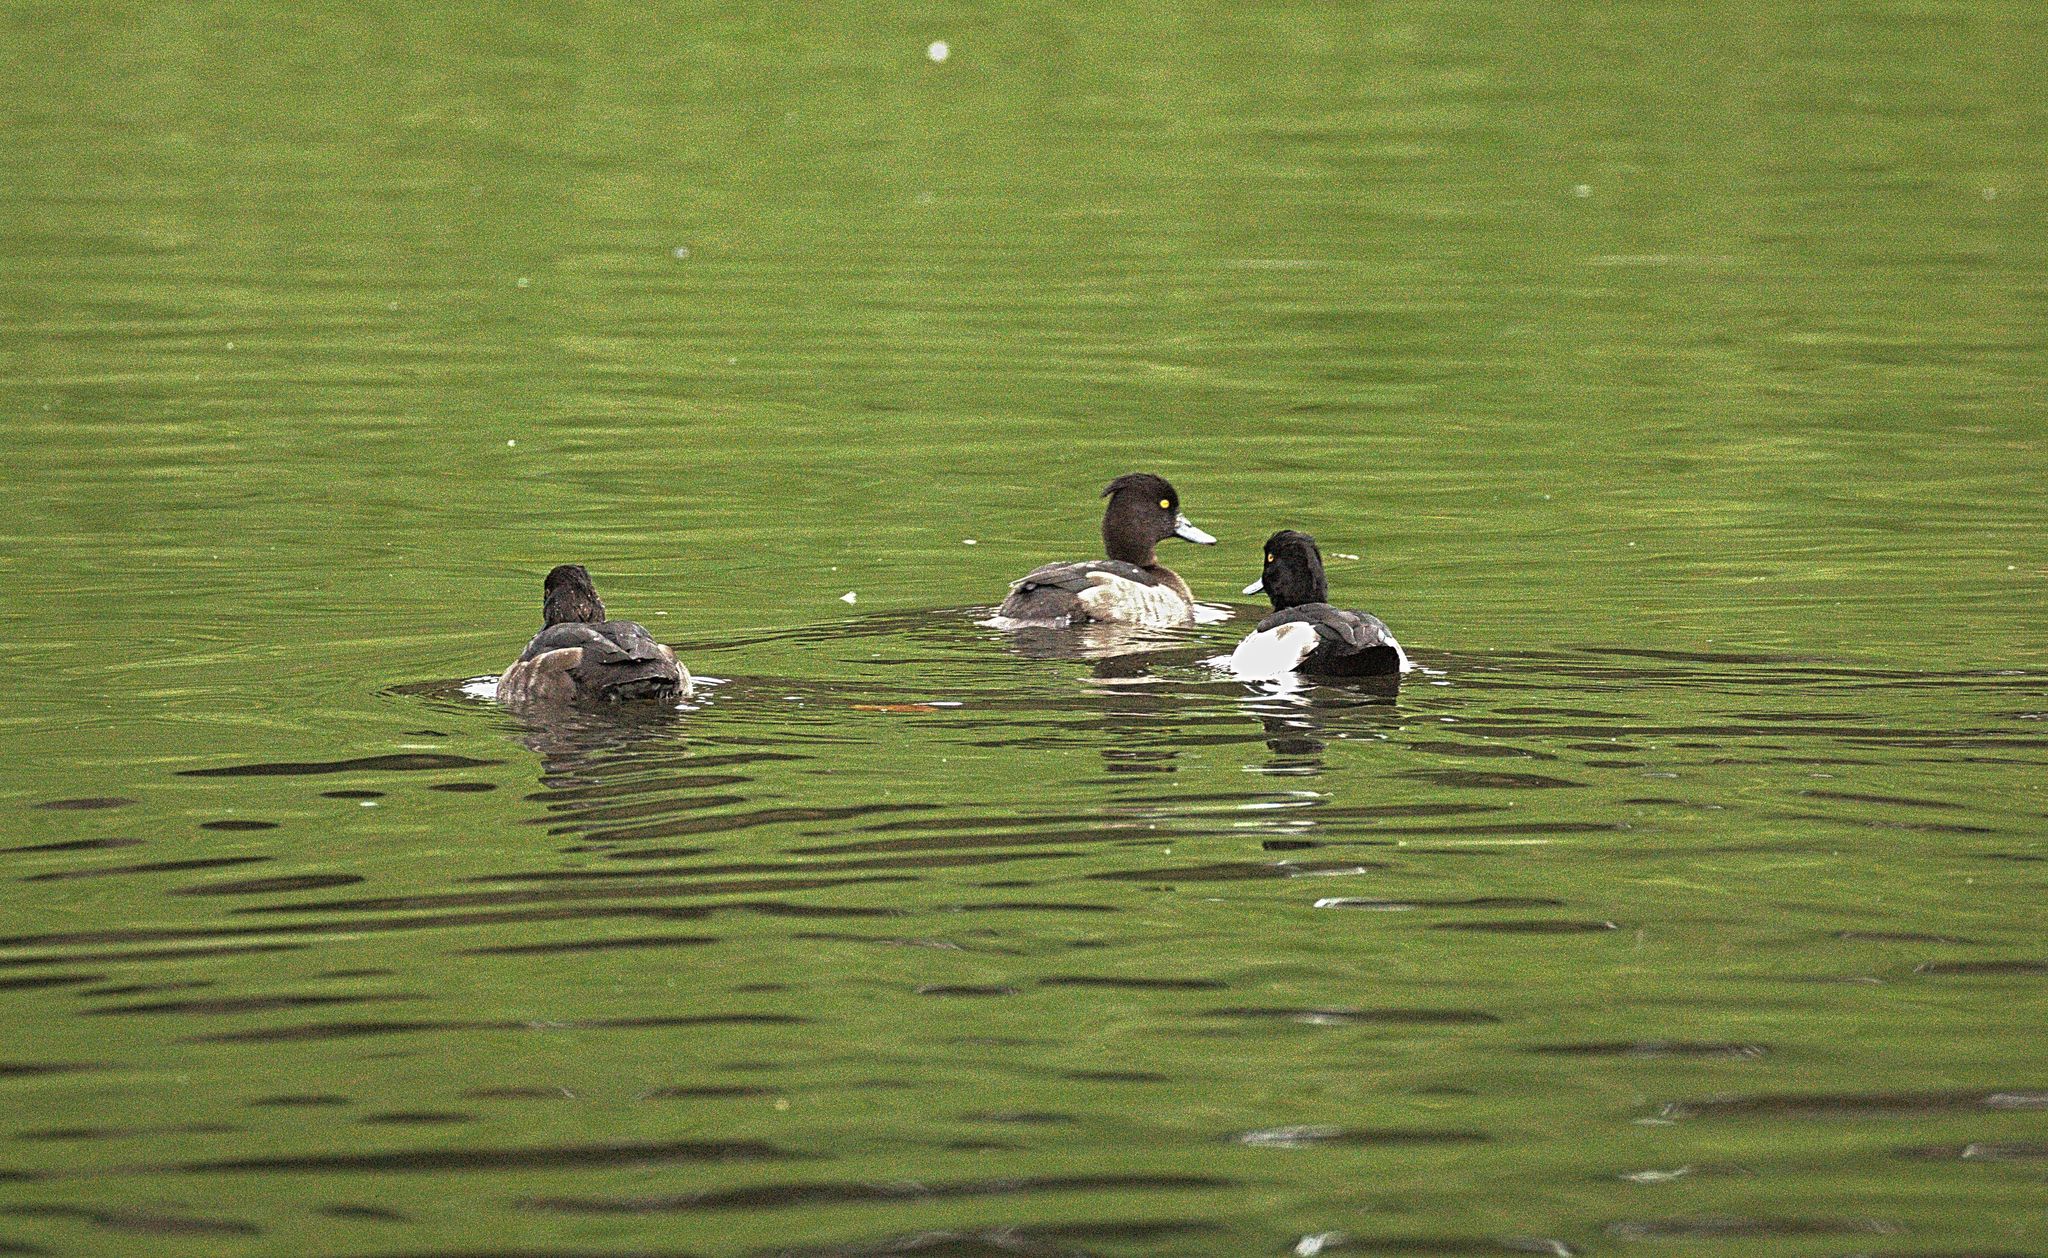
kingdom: Animalia
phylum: Chordata
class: Aves
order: Anseriformes
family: Anatidae
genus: Aythya
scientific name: Aythya fuligula
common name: Tufted duck
